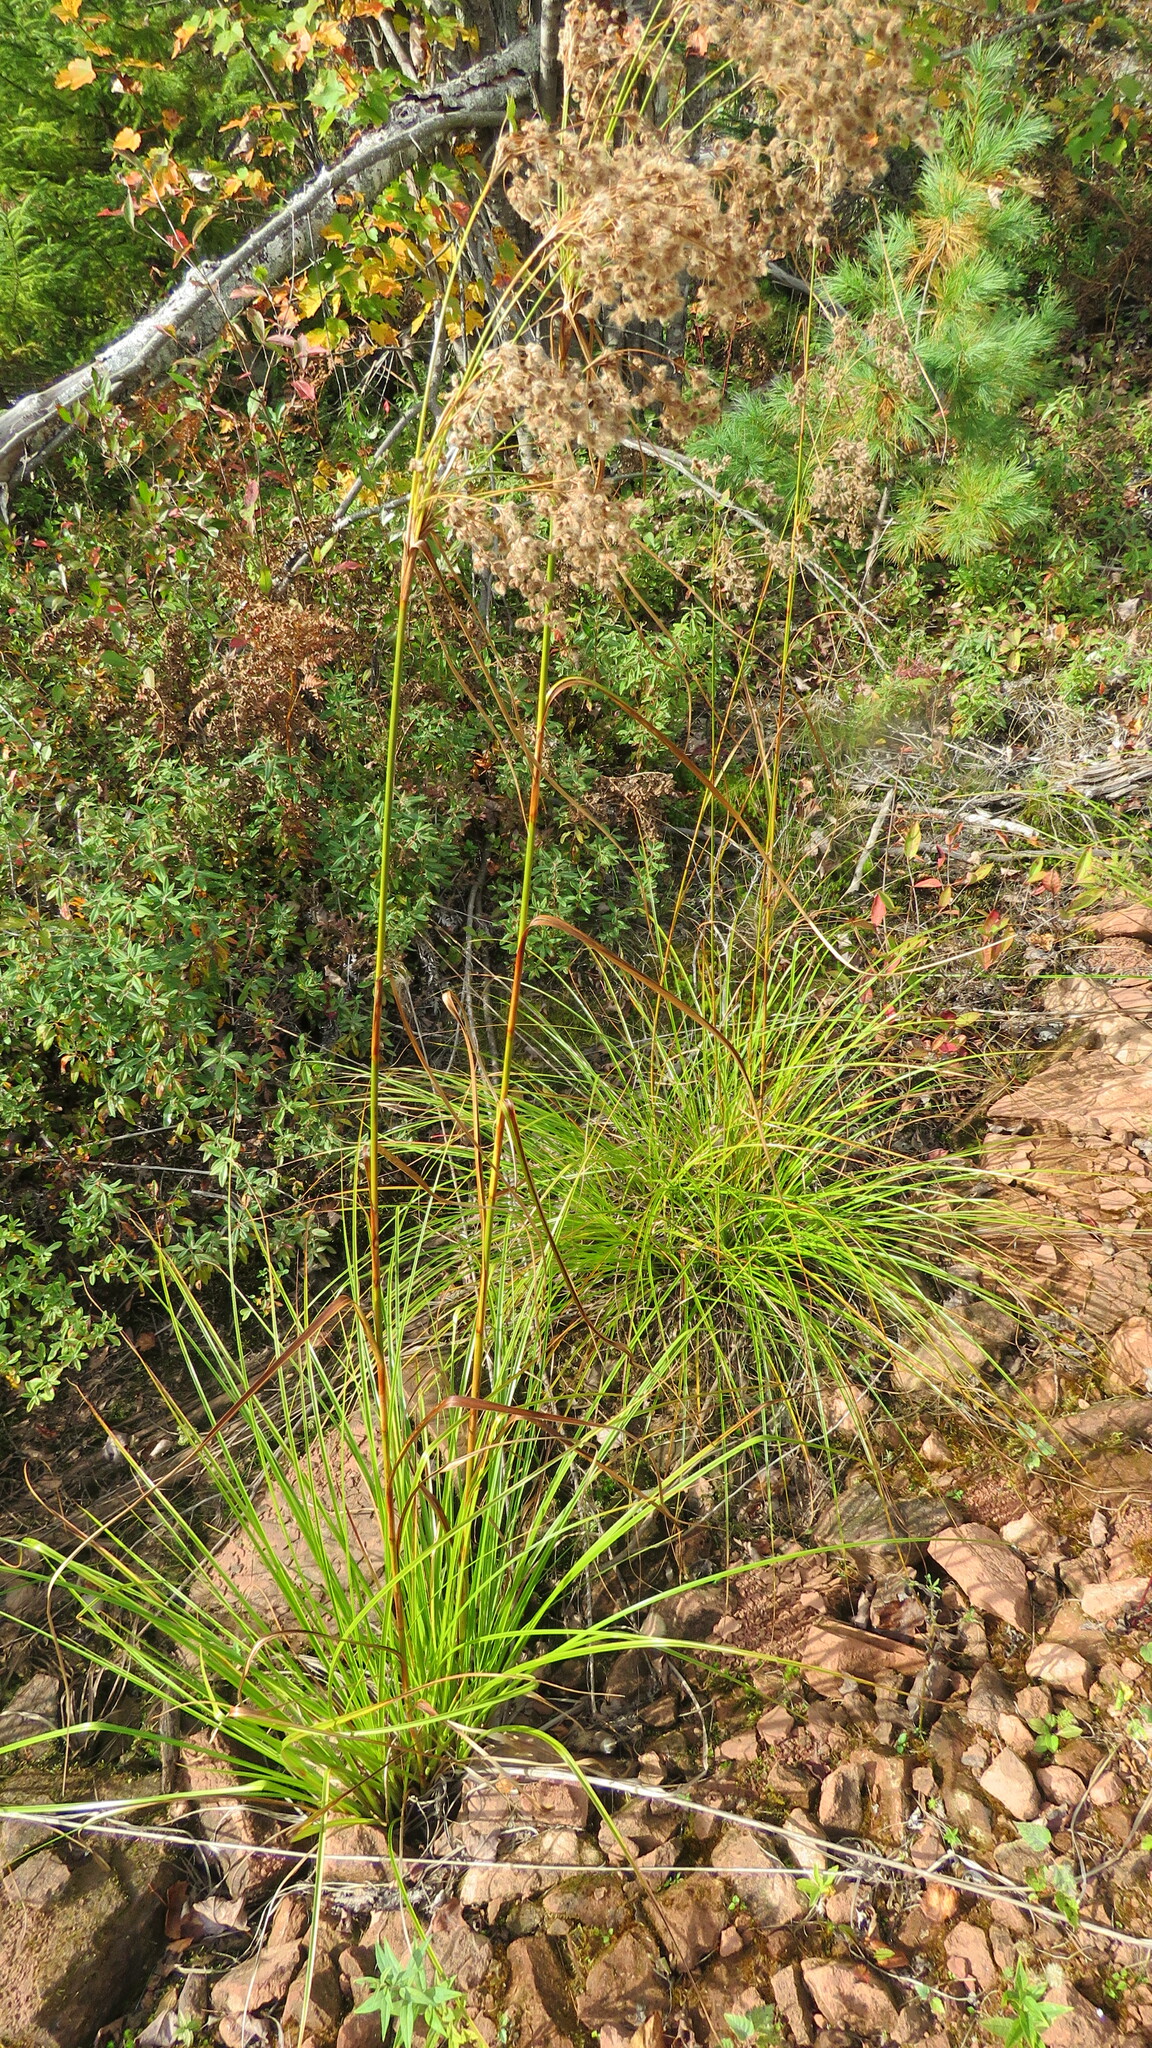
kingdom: Plantae
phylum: Tracheophyta
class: Liliopsida
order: Poales
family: Cyperaceae
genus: Scirpus
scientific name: Scirpus cyperinus
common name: Black-sheathed bulrush
